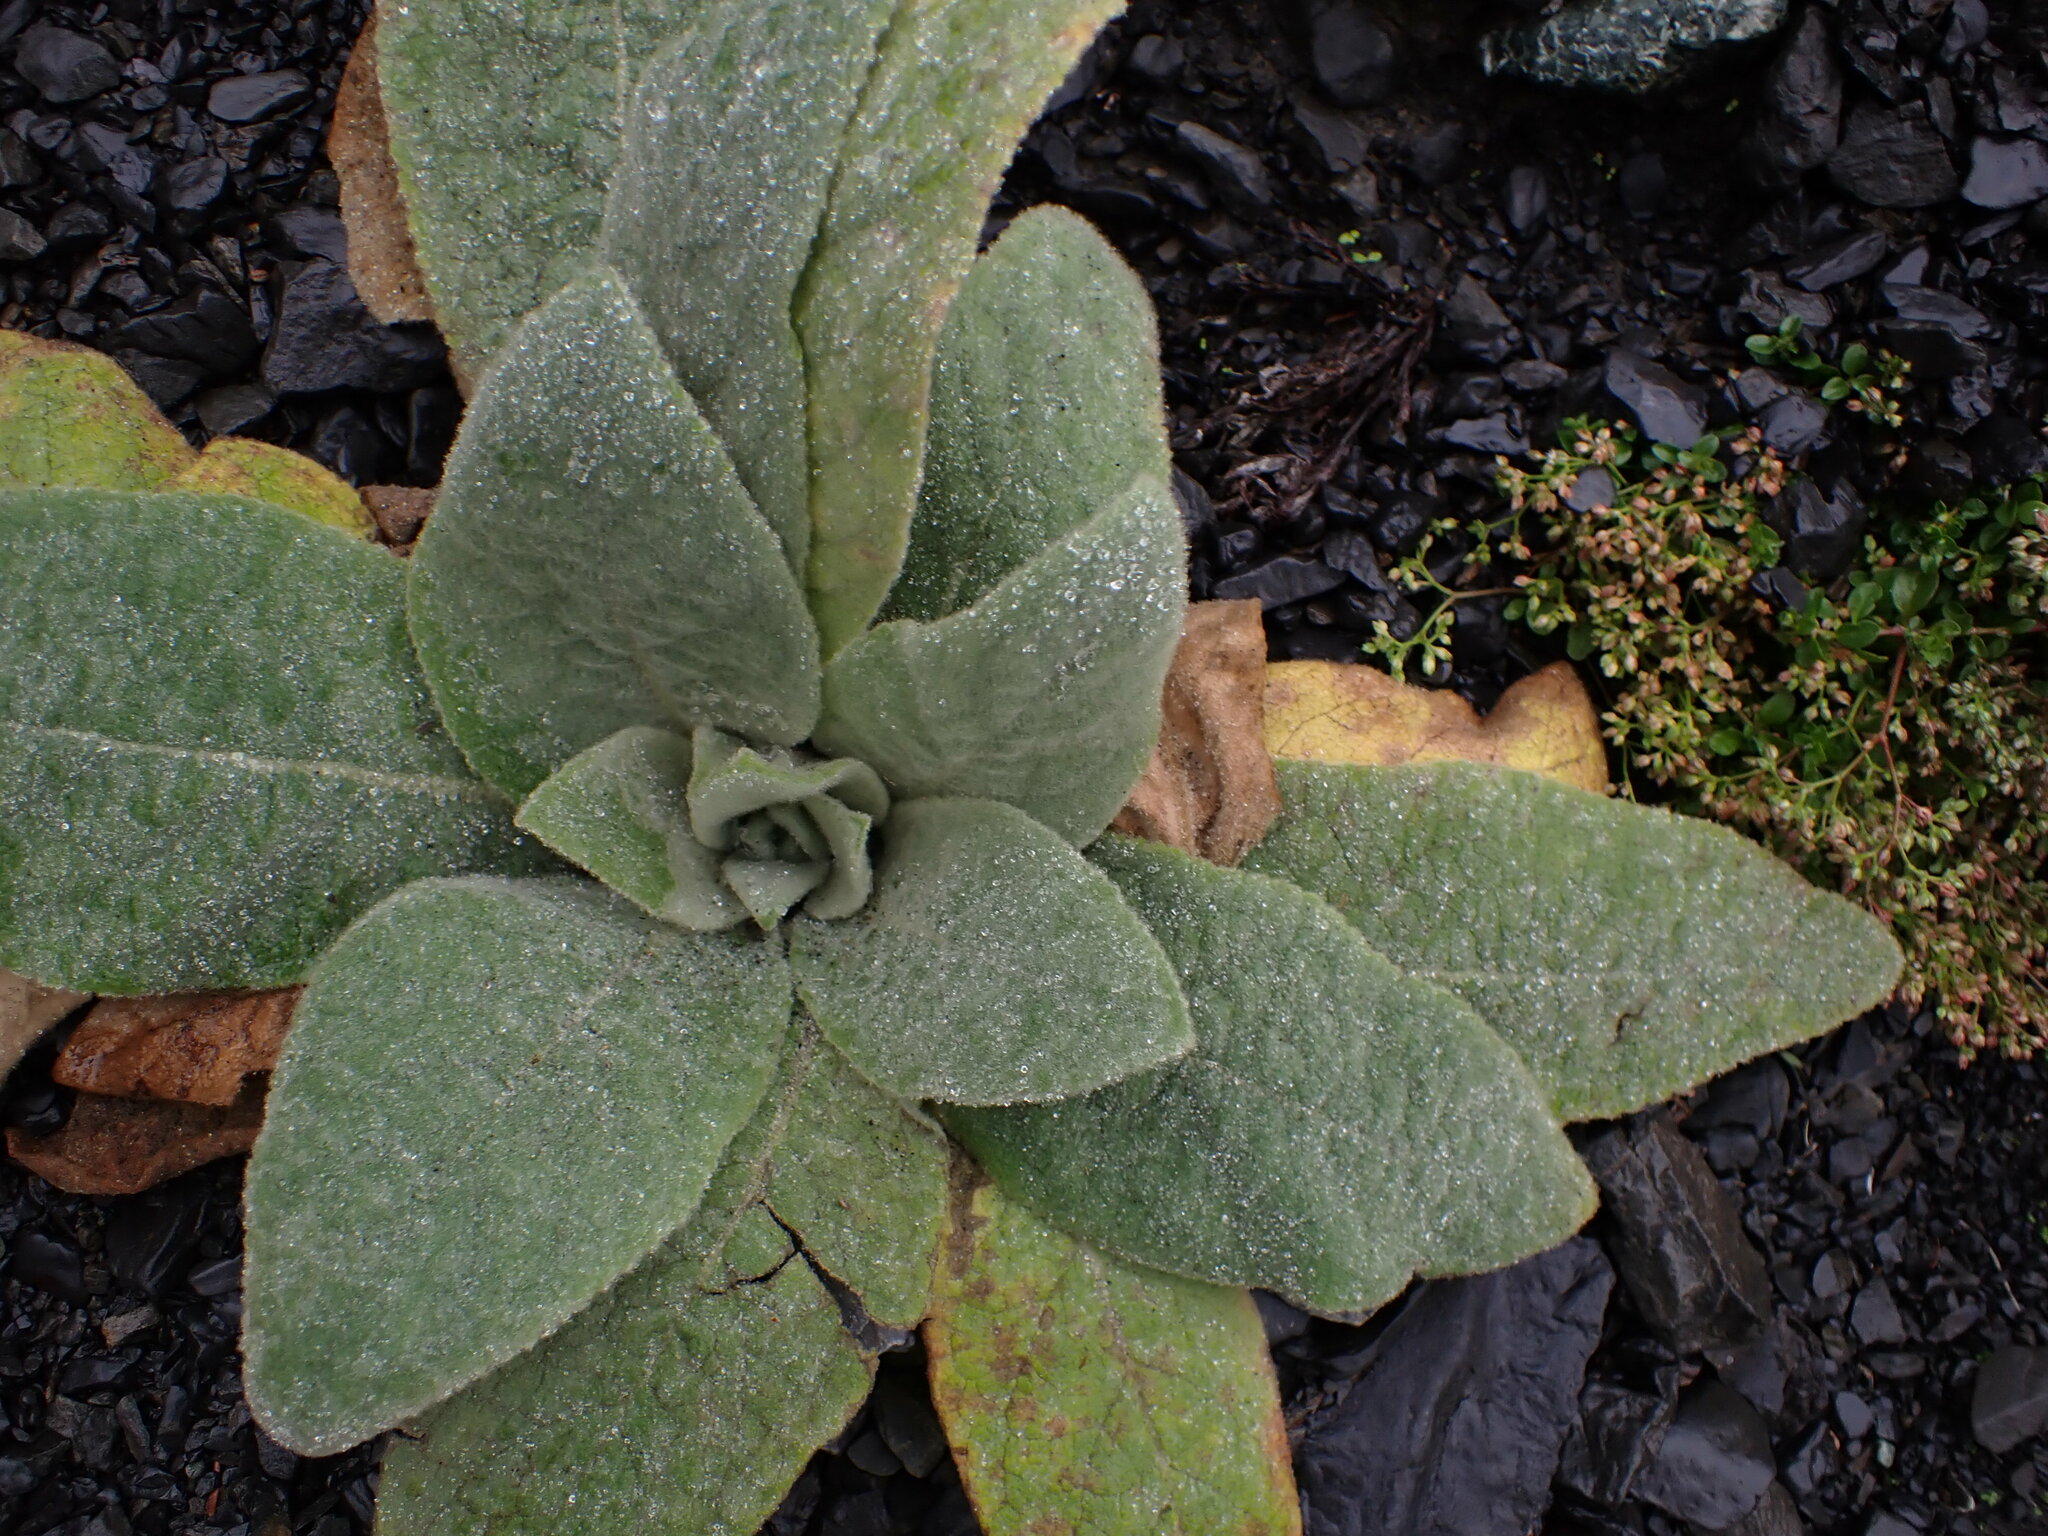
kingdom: Plantae
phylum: Tracheophyta
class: Magnoliopsida
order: Lamiales
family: Scrophulariaceae
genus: Verbascum
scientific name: Verbascum thapsus
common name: Common mullein
